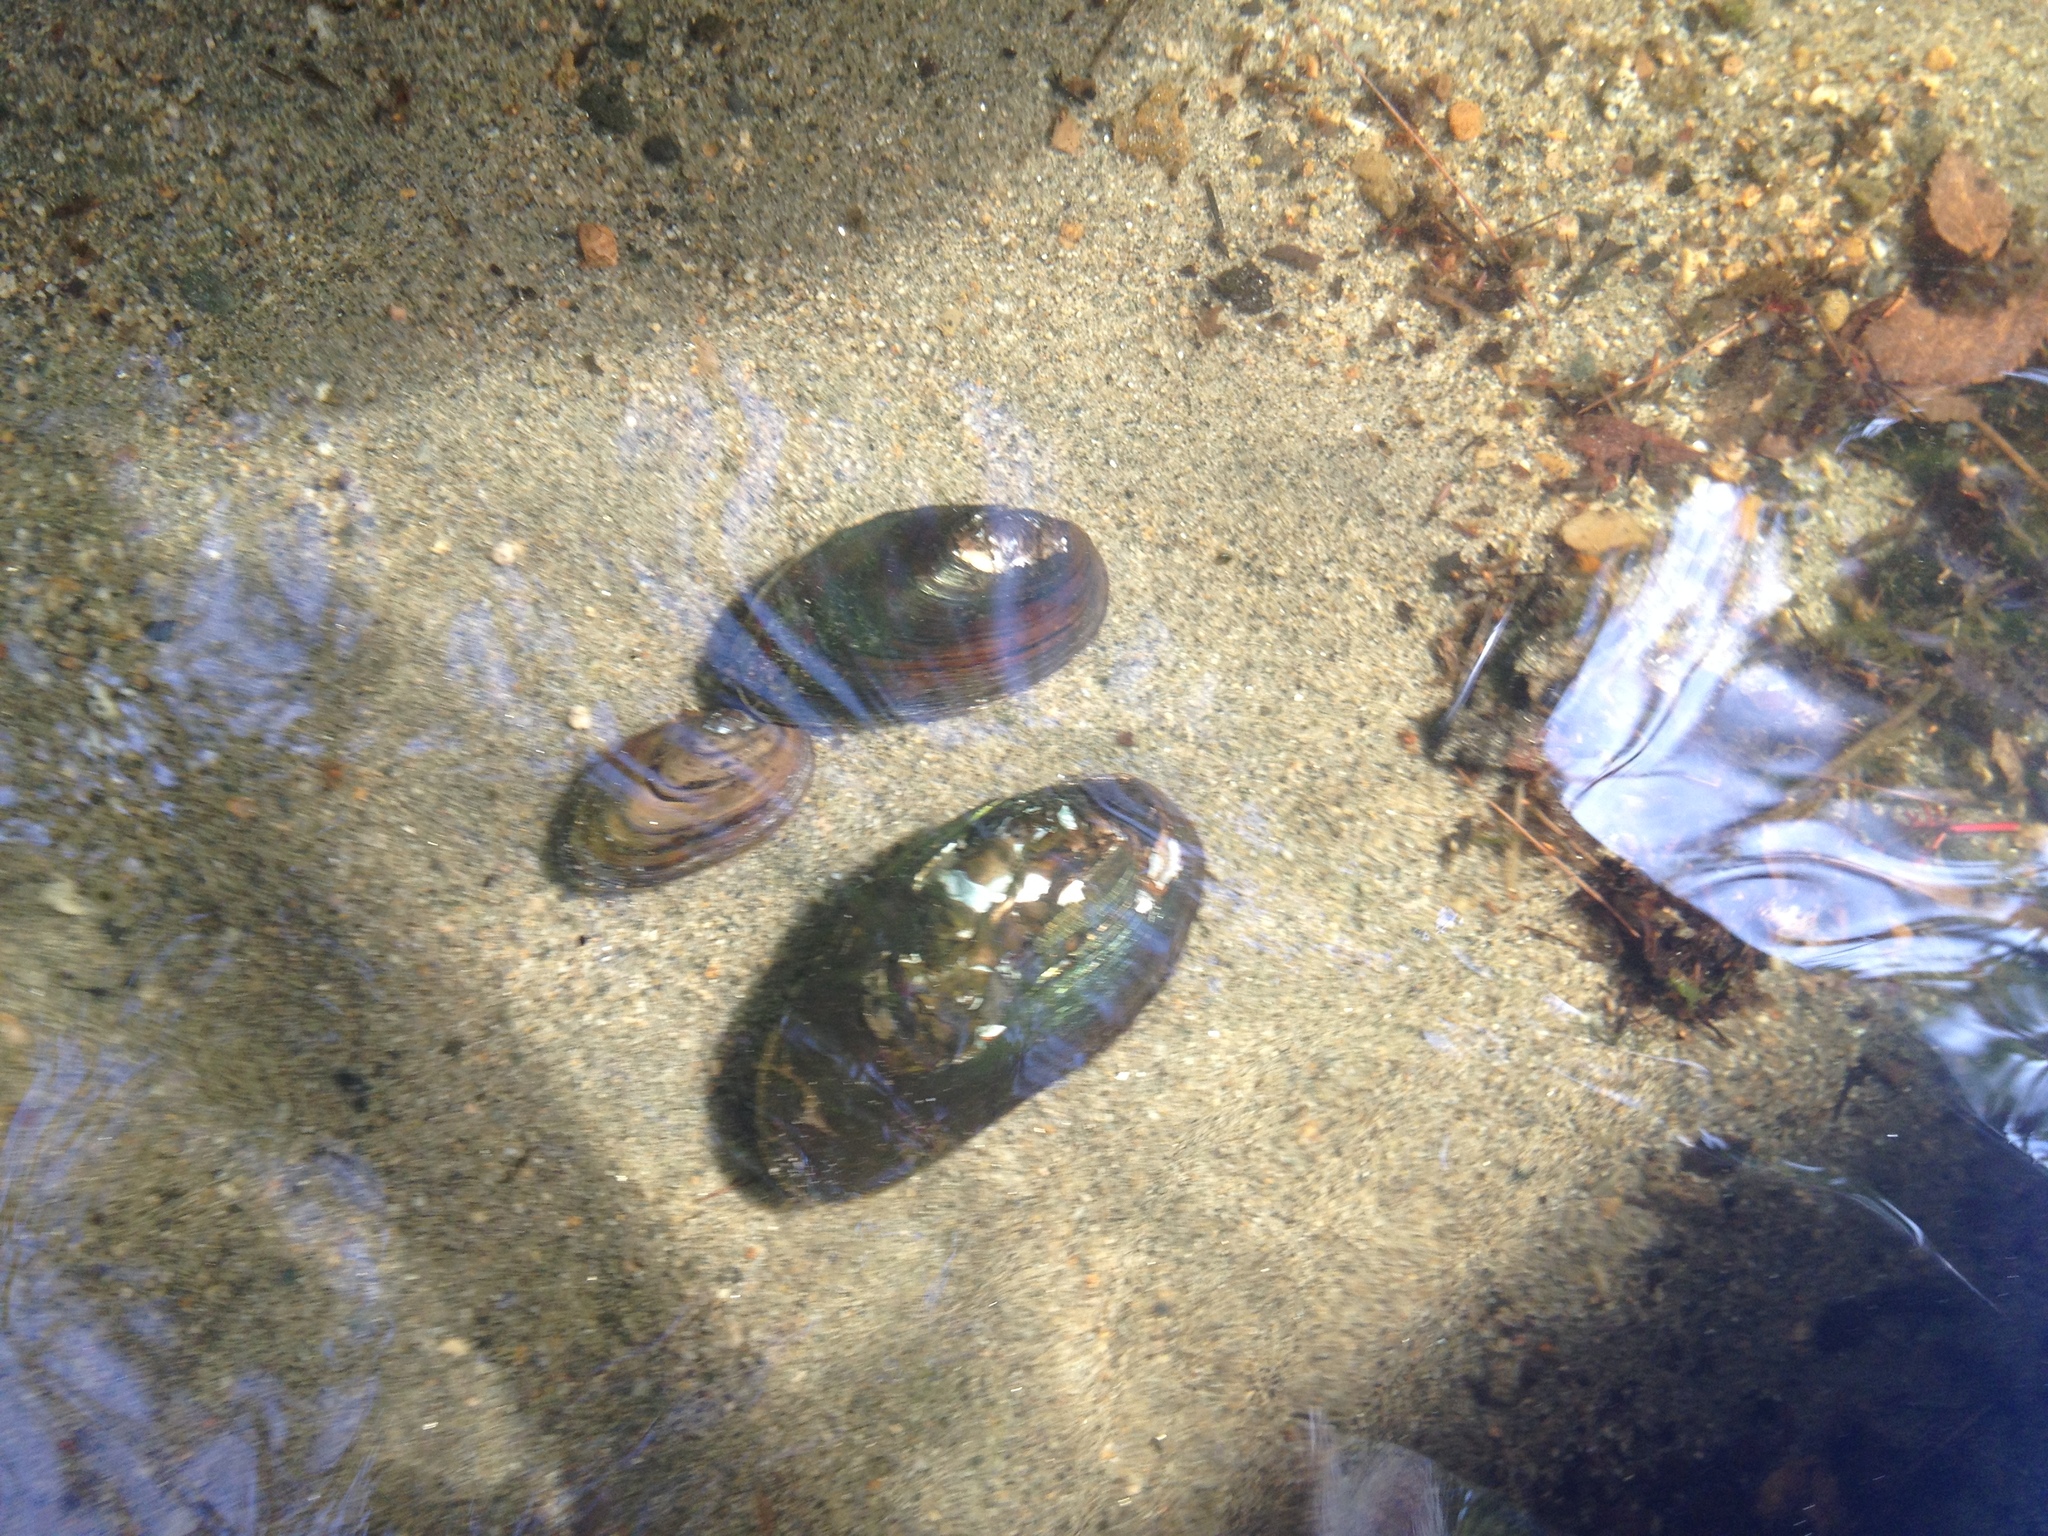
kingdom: Animalia
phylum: Mollusca
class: Bivalvia
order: Unionida
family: Unionidae
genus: Elliptio
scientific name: Elliptio complanata
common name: Eastern elliptio
